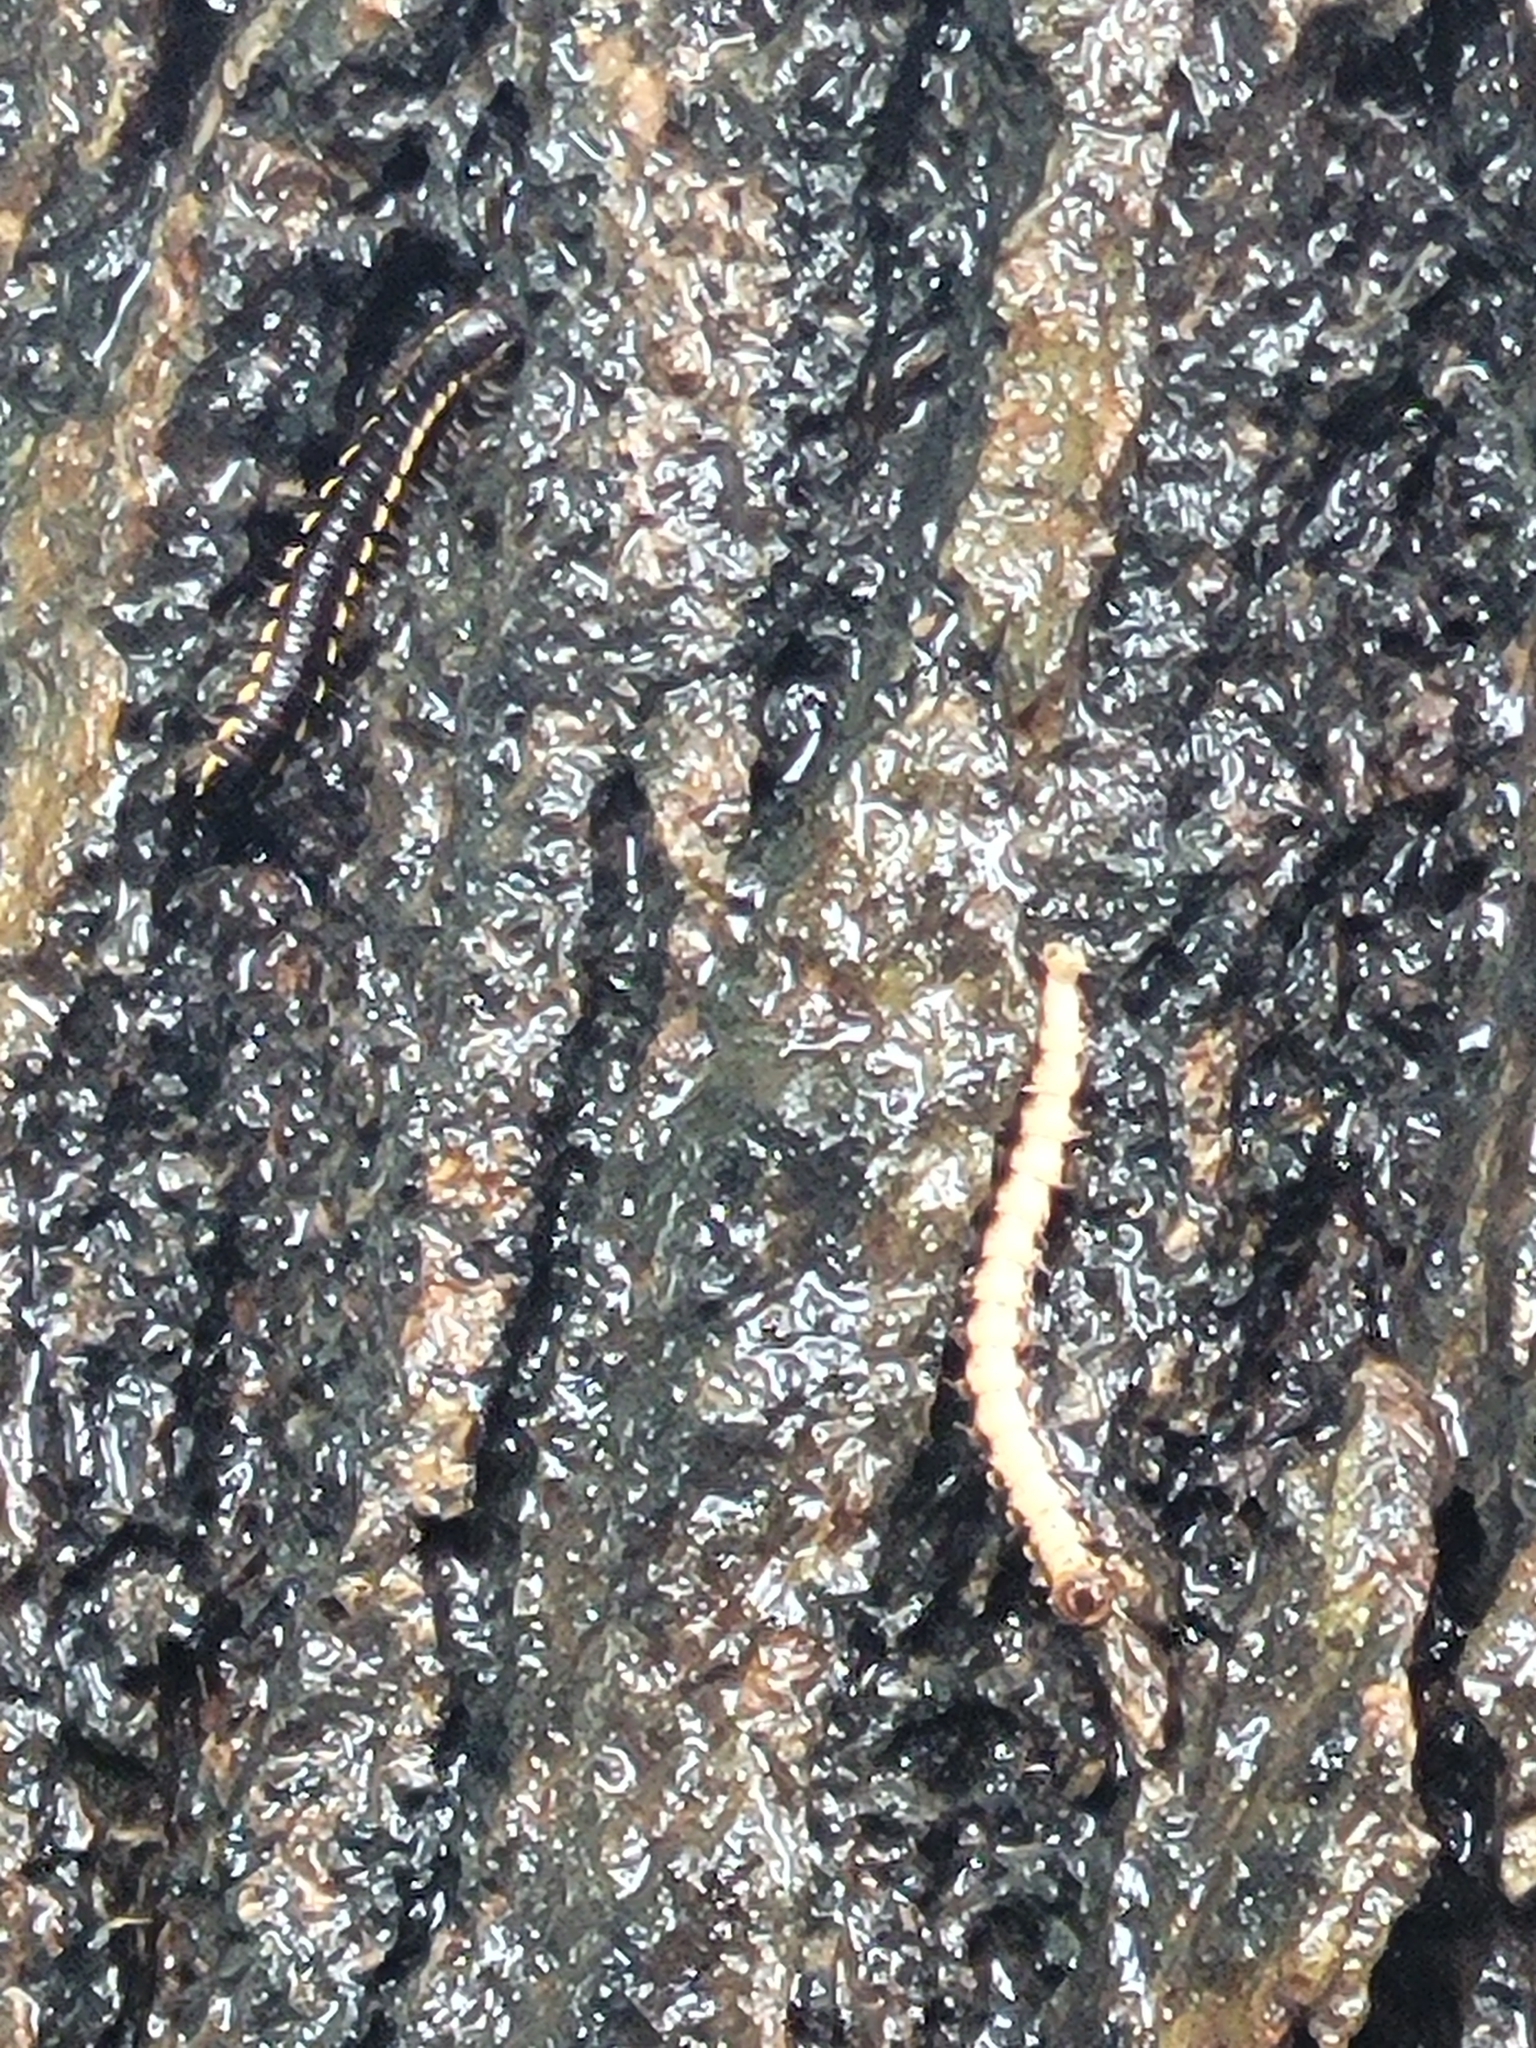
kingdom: Animalia
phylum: Arthropoda
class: Diplopoda
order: Polydesmida
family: Paradoxosomatidae
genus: Orthomorpha
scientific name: Orthomorpha coarctata
